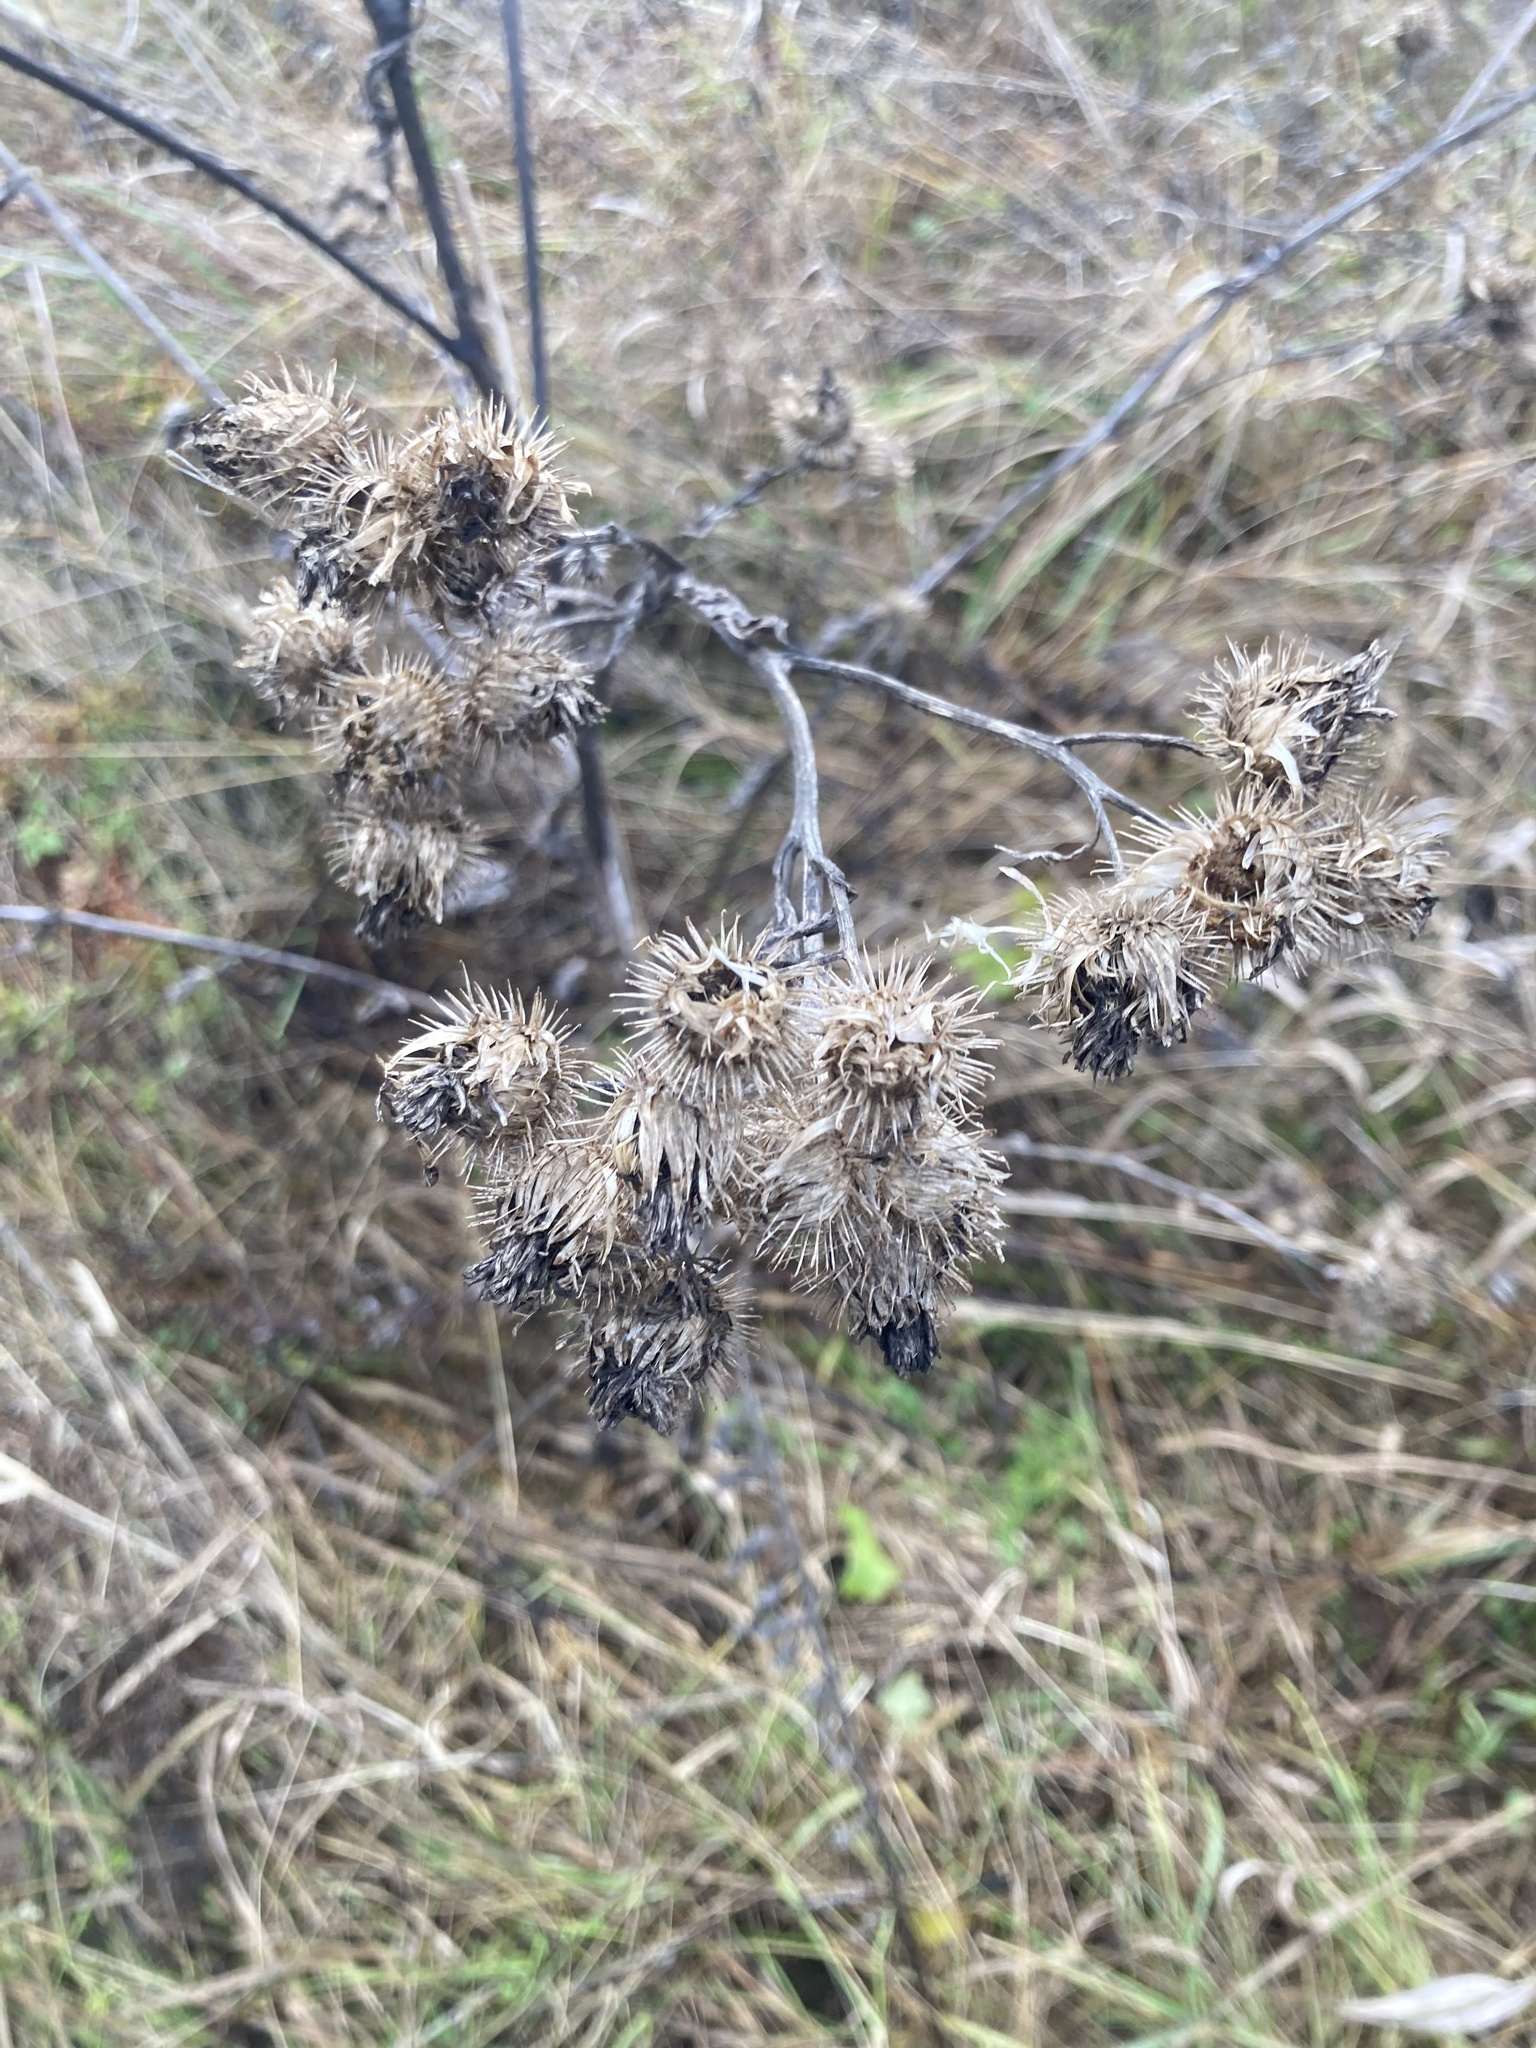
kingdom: Plantae
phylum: Tracheophyta
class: Magnoliopsida
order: Asterales
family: Asteraceae
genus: Arctium
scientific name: Arctium tomentosum
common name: Woolly burdock
